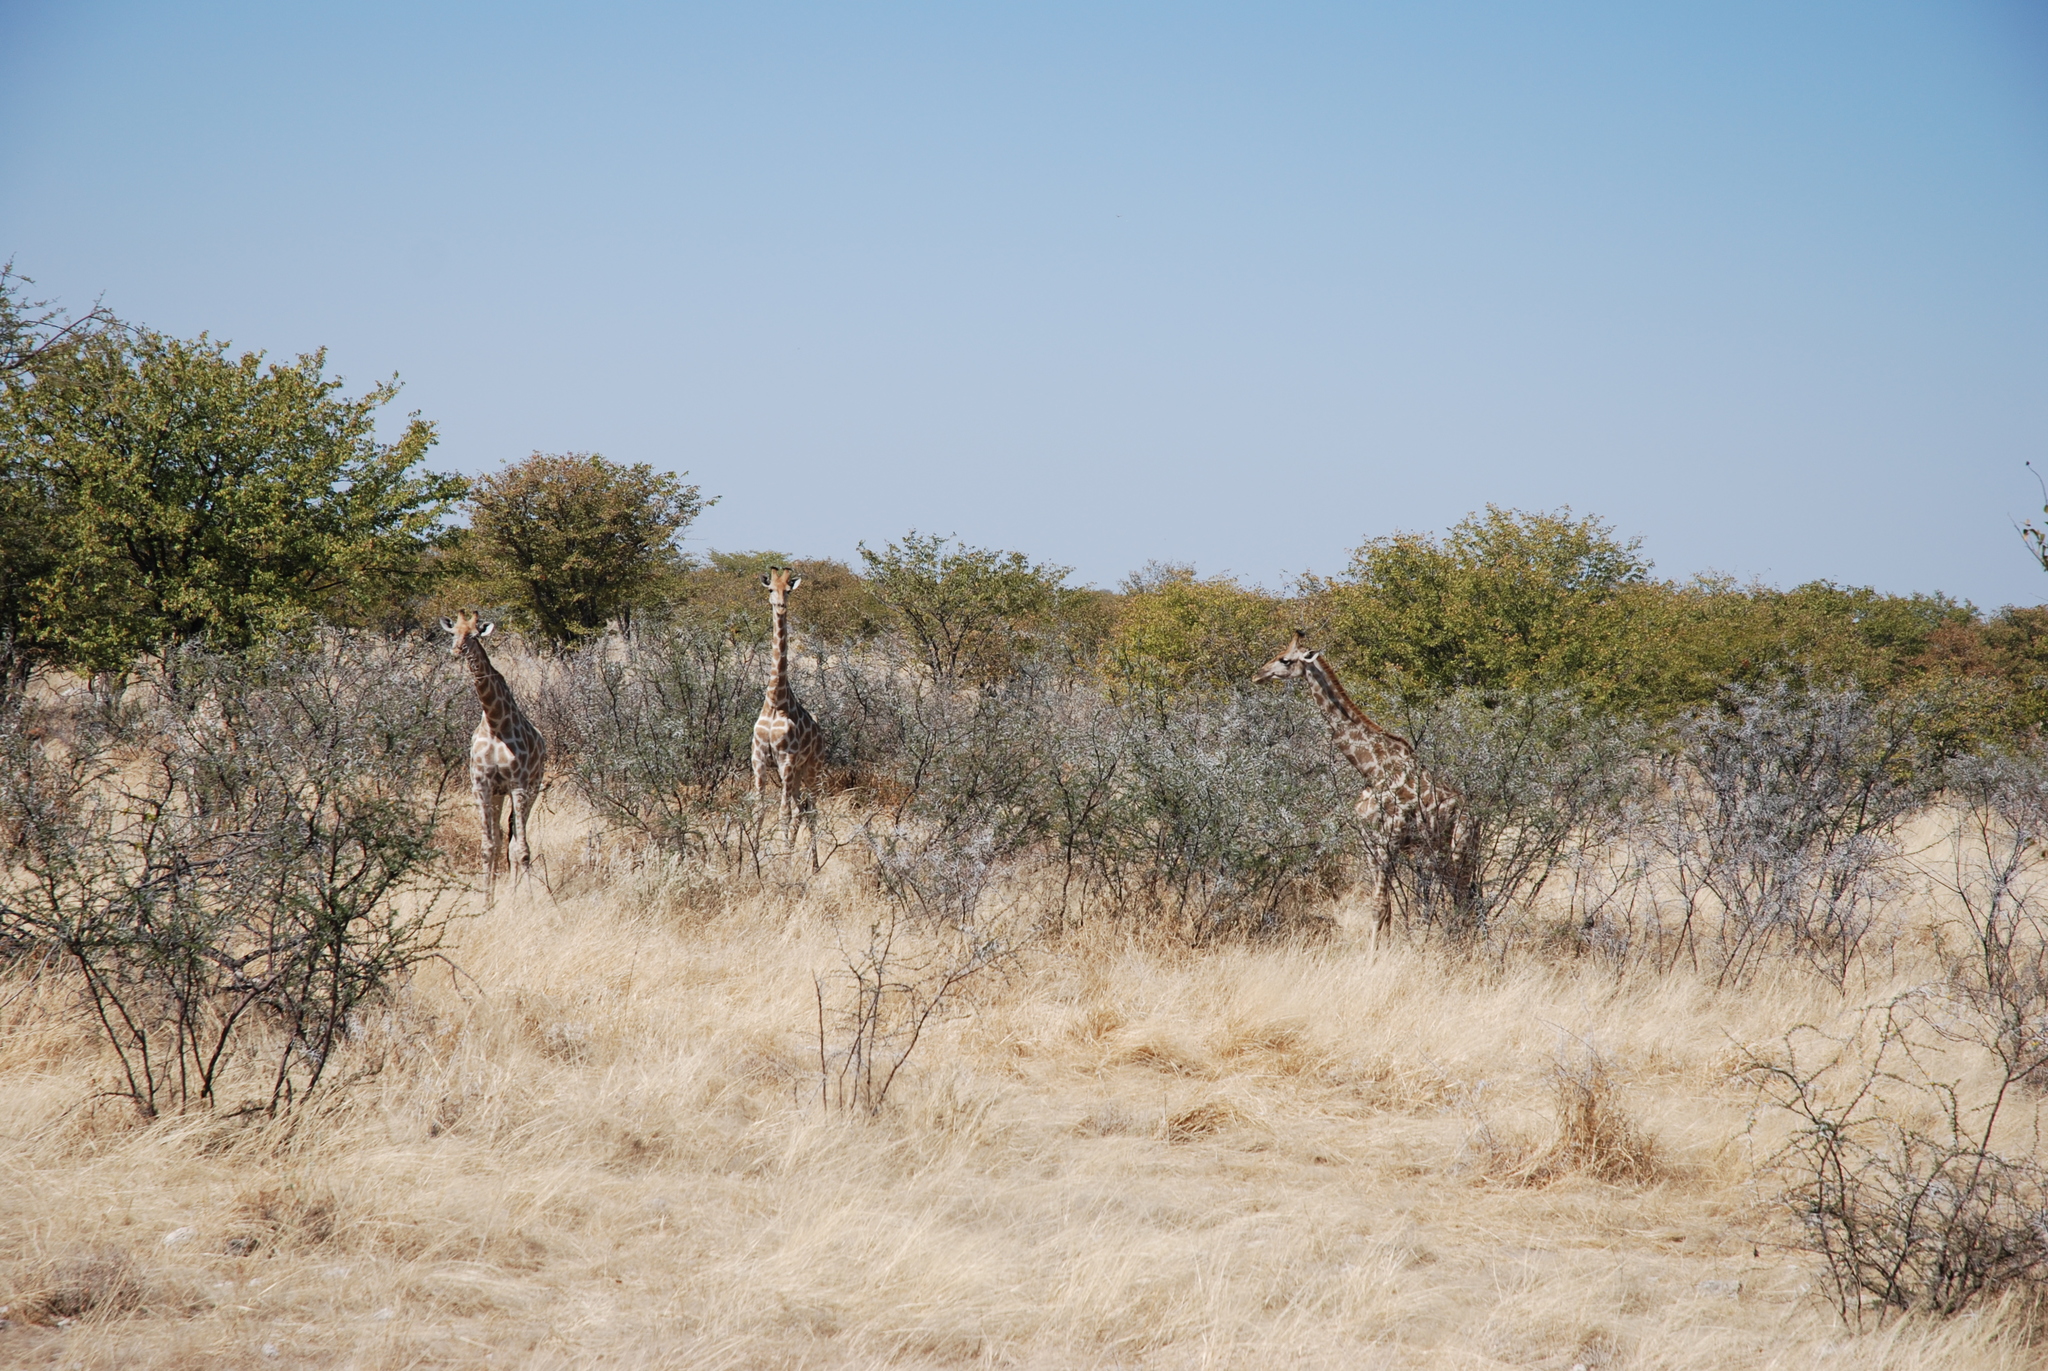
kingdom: Animalia
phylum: Chordata
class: Mammalia
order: Artiodactyla
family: Giraffidae
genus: Giraffa
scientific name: Giraffa giraffa
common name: Southern giraffe
